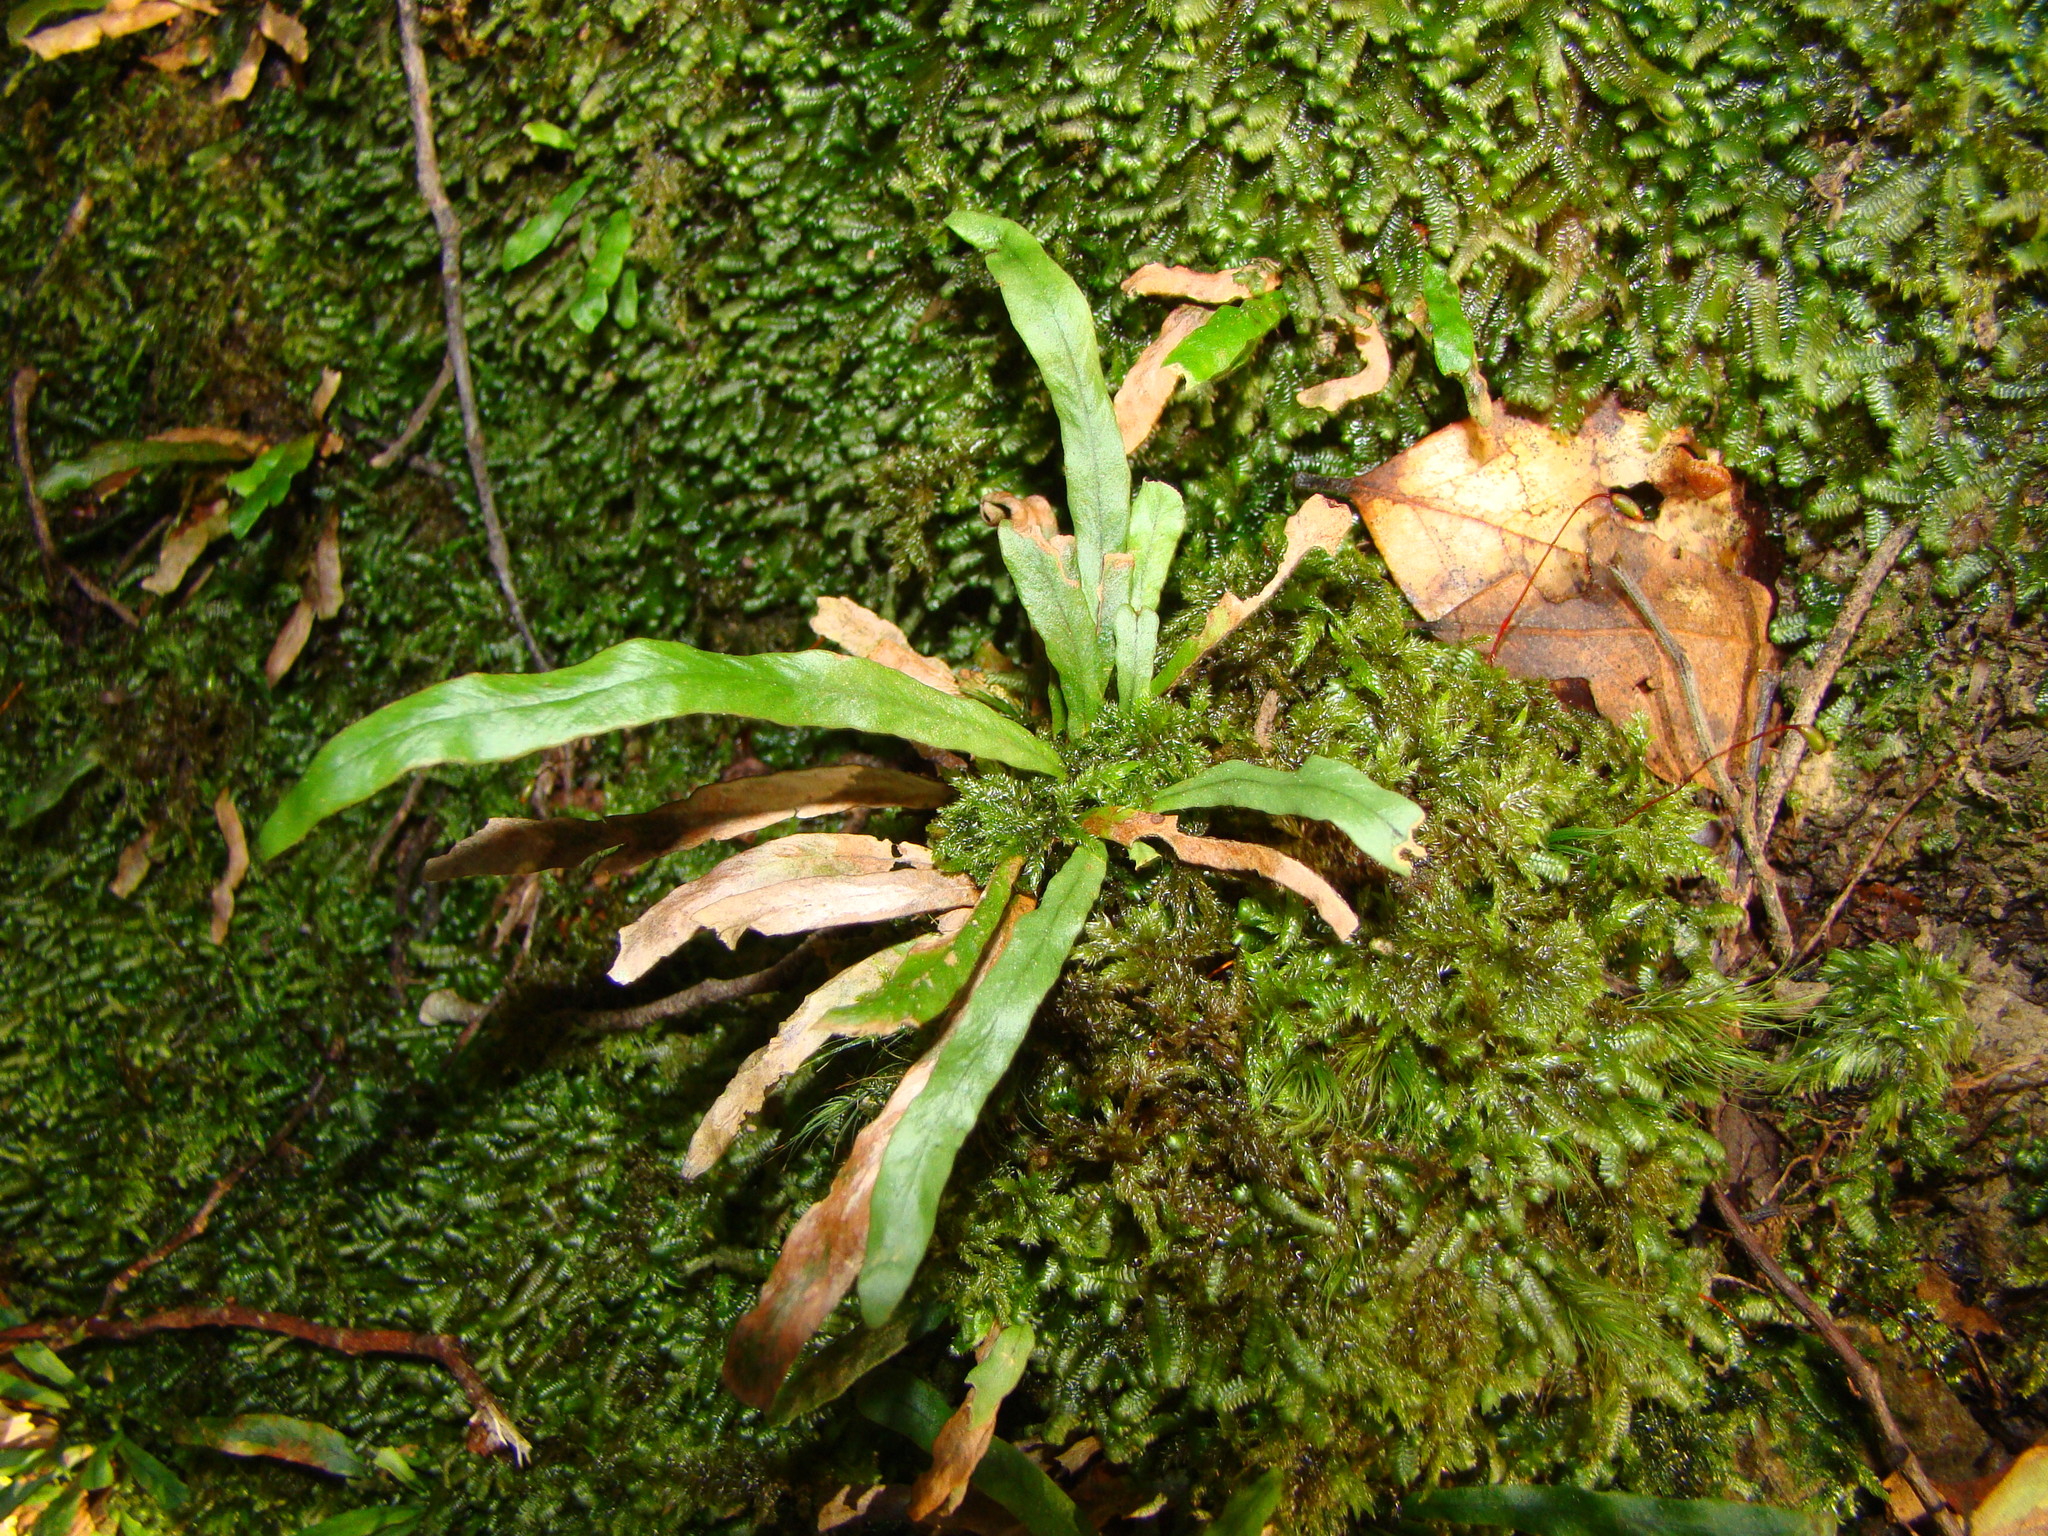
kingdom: Plantae
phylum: Tracheophyta
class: Polypodiopsida
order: Polypodiales
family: Polypodiaceae
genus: Notogrammitis
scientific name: Notogrammitis billardierei
